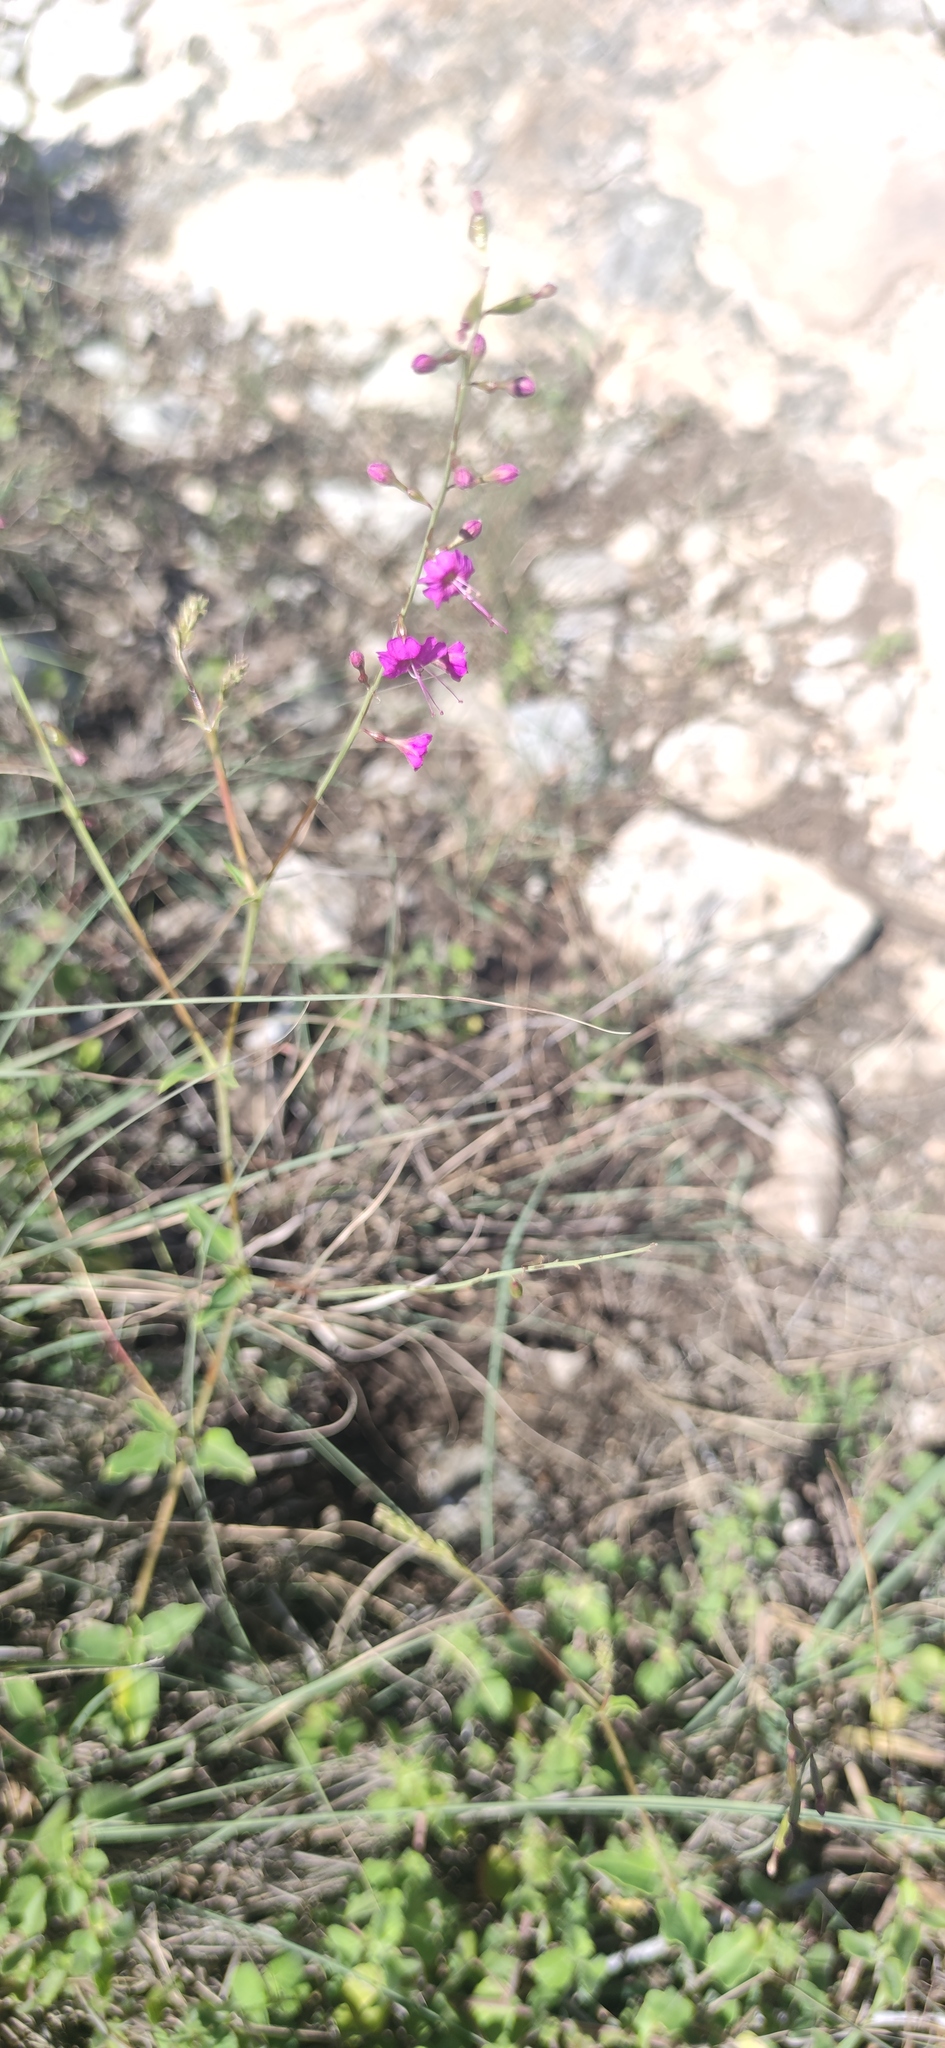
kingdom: Plantae
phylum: Tracheophyta
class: Magnoliopsida
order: Caryophyllales
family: Nyctaginaceae
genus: Cyphomeris
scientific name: Cyphomeris gypsophiloides
